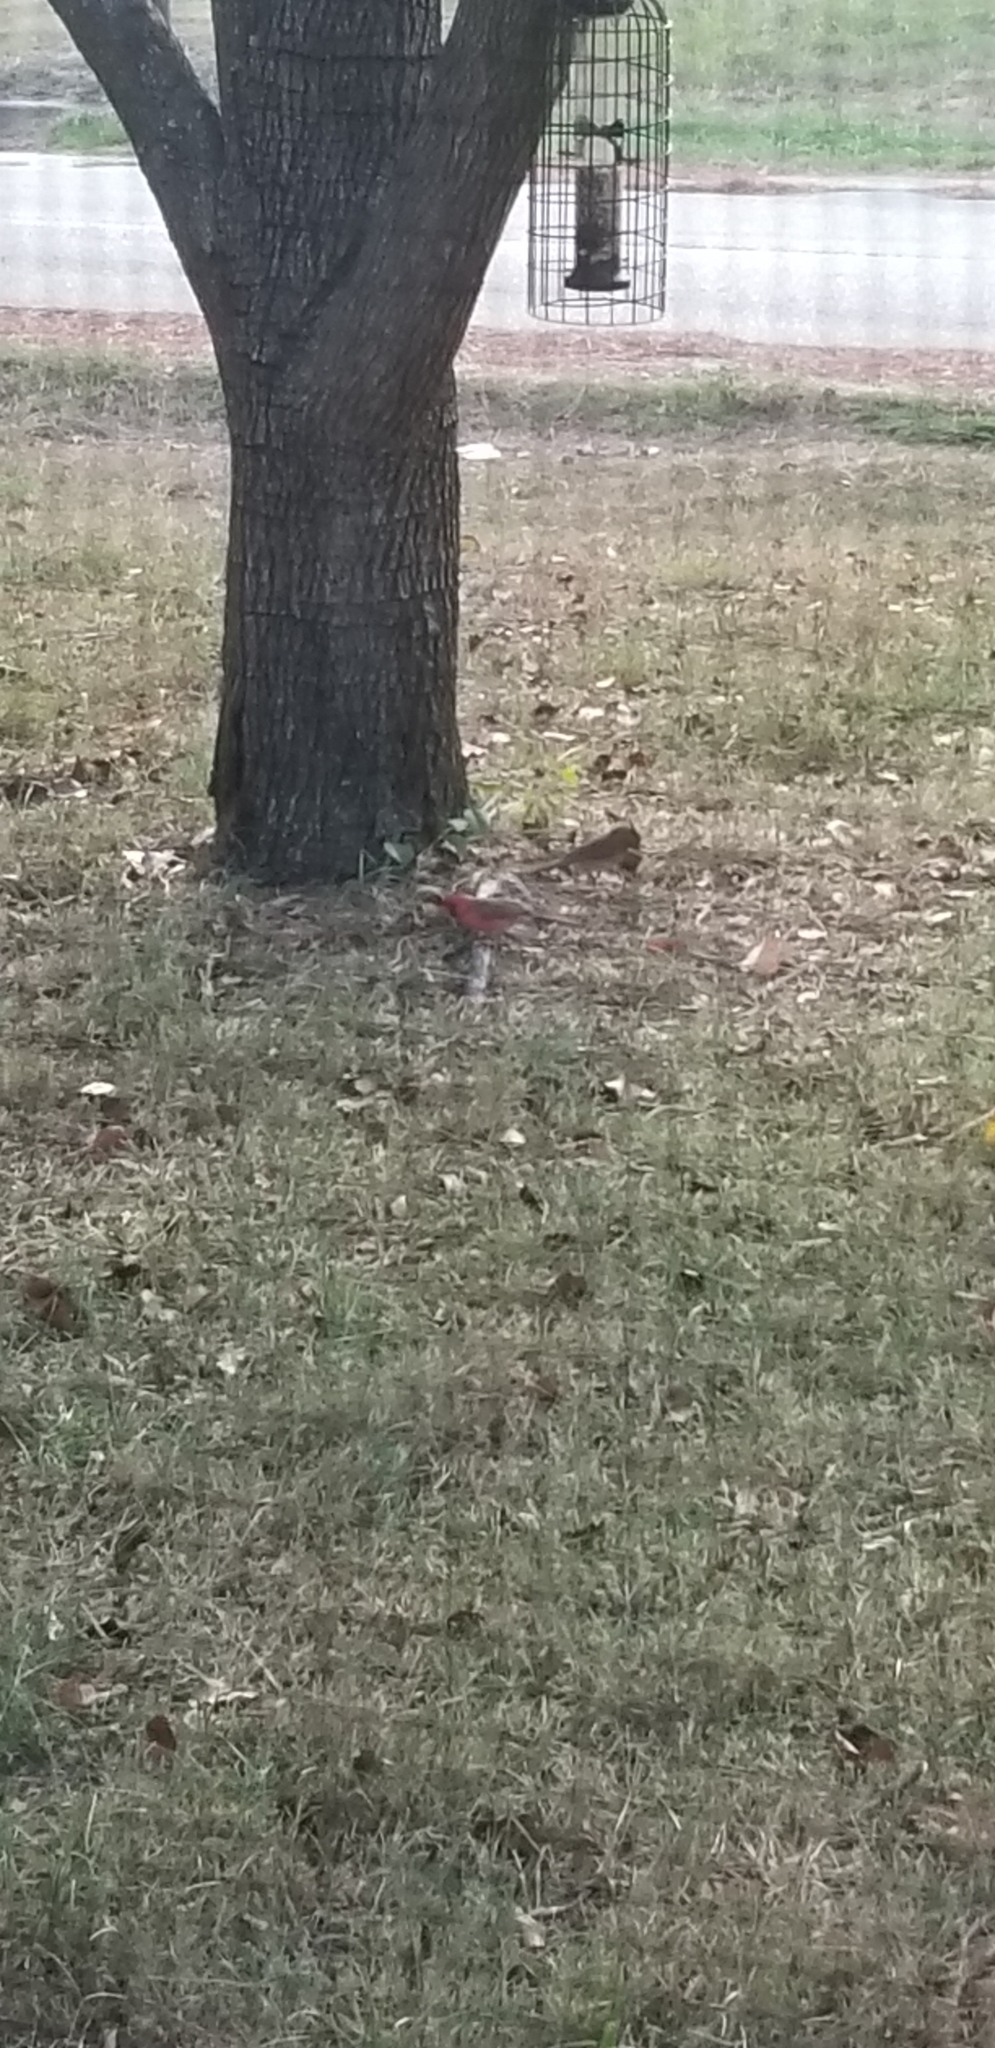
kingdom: Animalia
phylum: Chordata
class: Aves
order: Passeriformes
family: Cardinalidae
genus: Cardinalis
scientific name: Cardinalis cardinalis
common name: Northern cardinal
